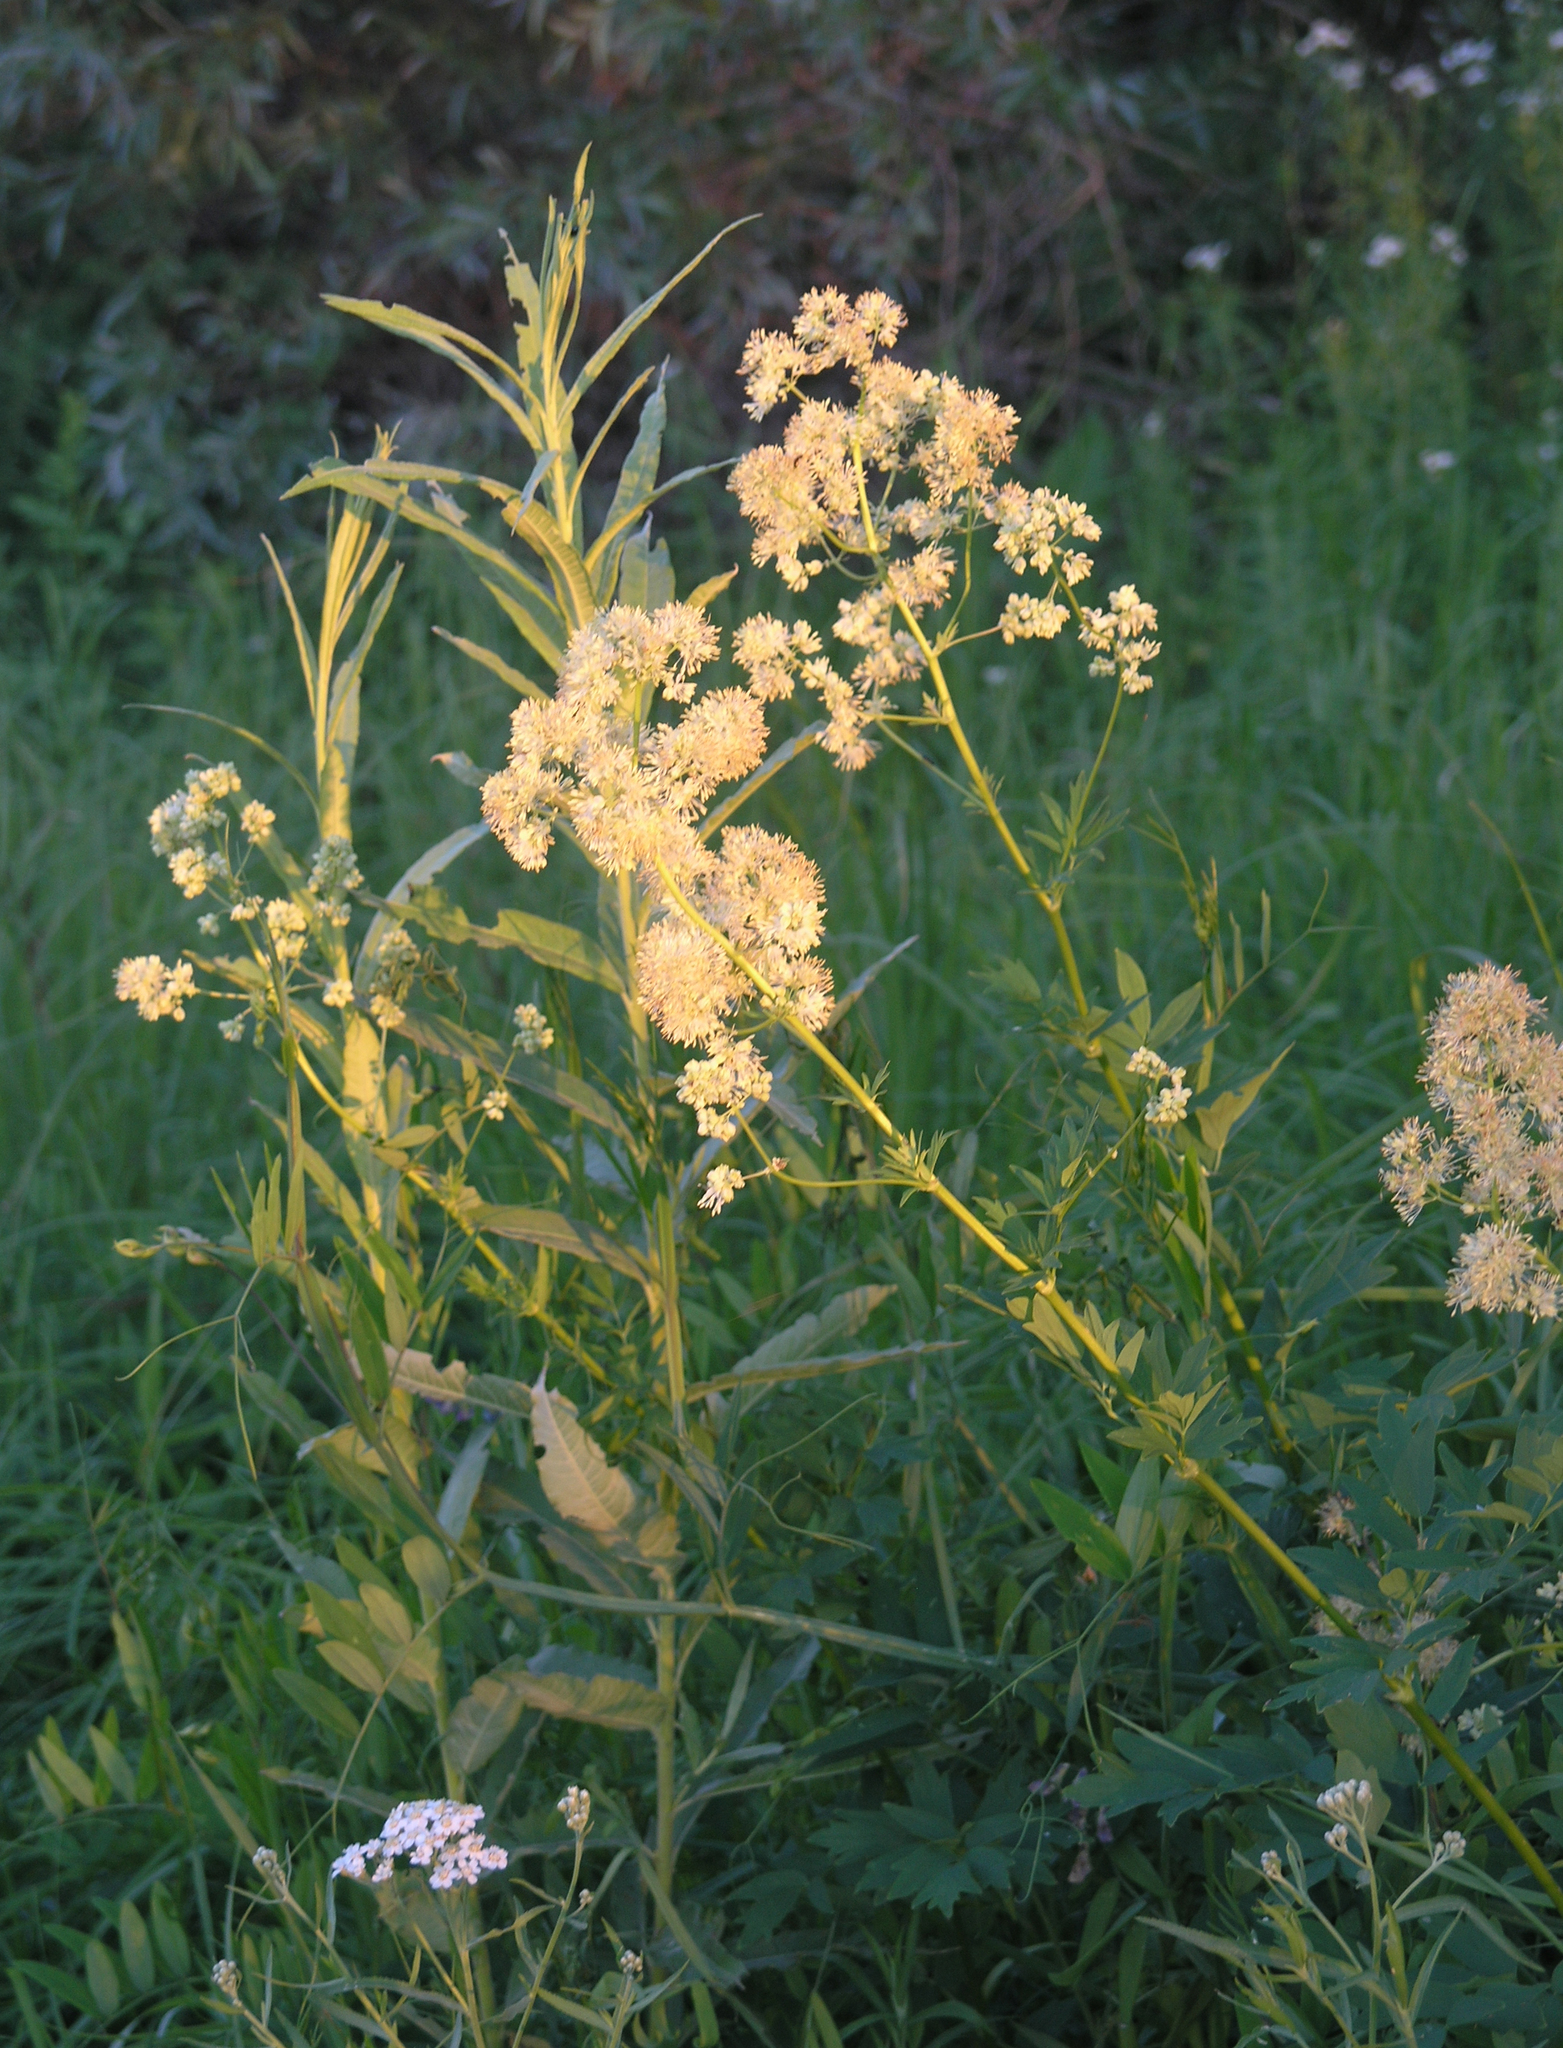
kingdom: Plantae
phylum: Tracheophyta
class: Magnoliopsida
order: Ranunculales
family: Ranunculaceae
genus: Thalictrum
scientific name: Thalictrum flavum
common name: Common meadow-rue
